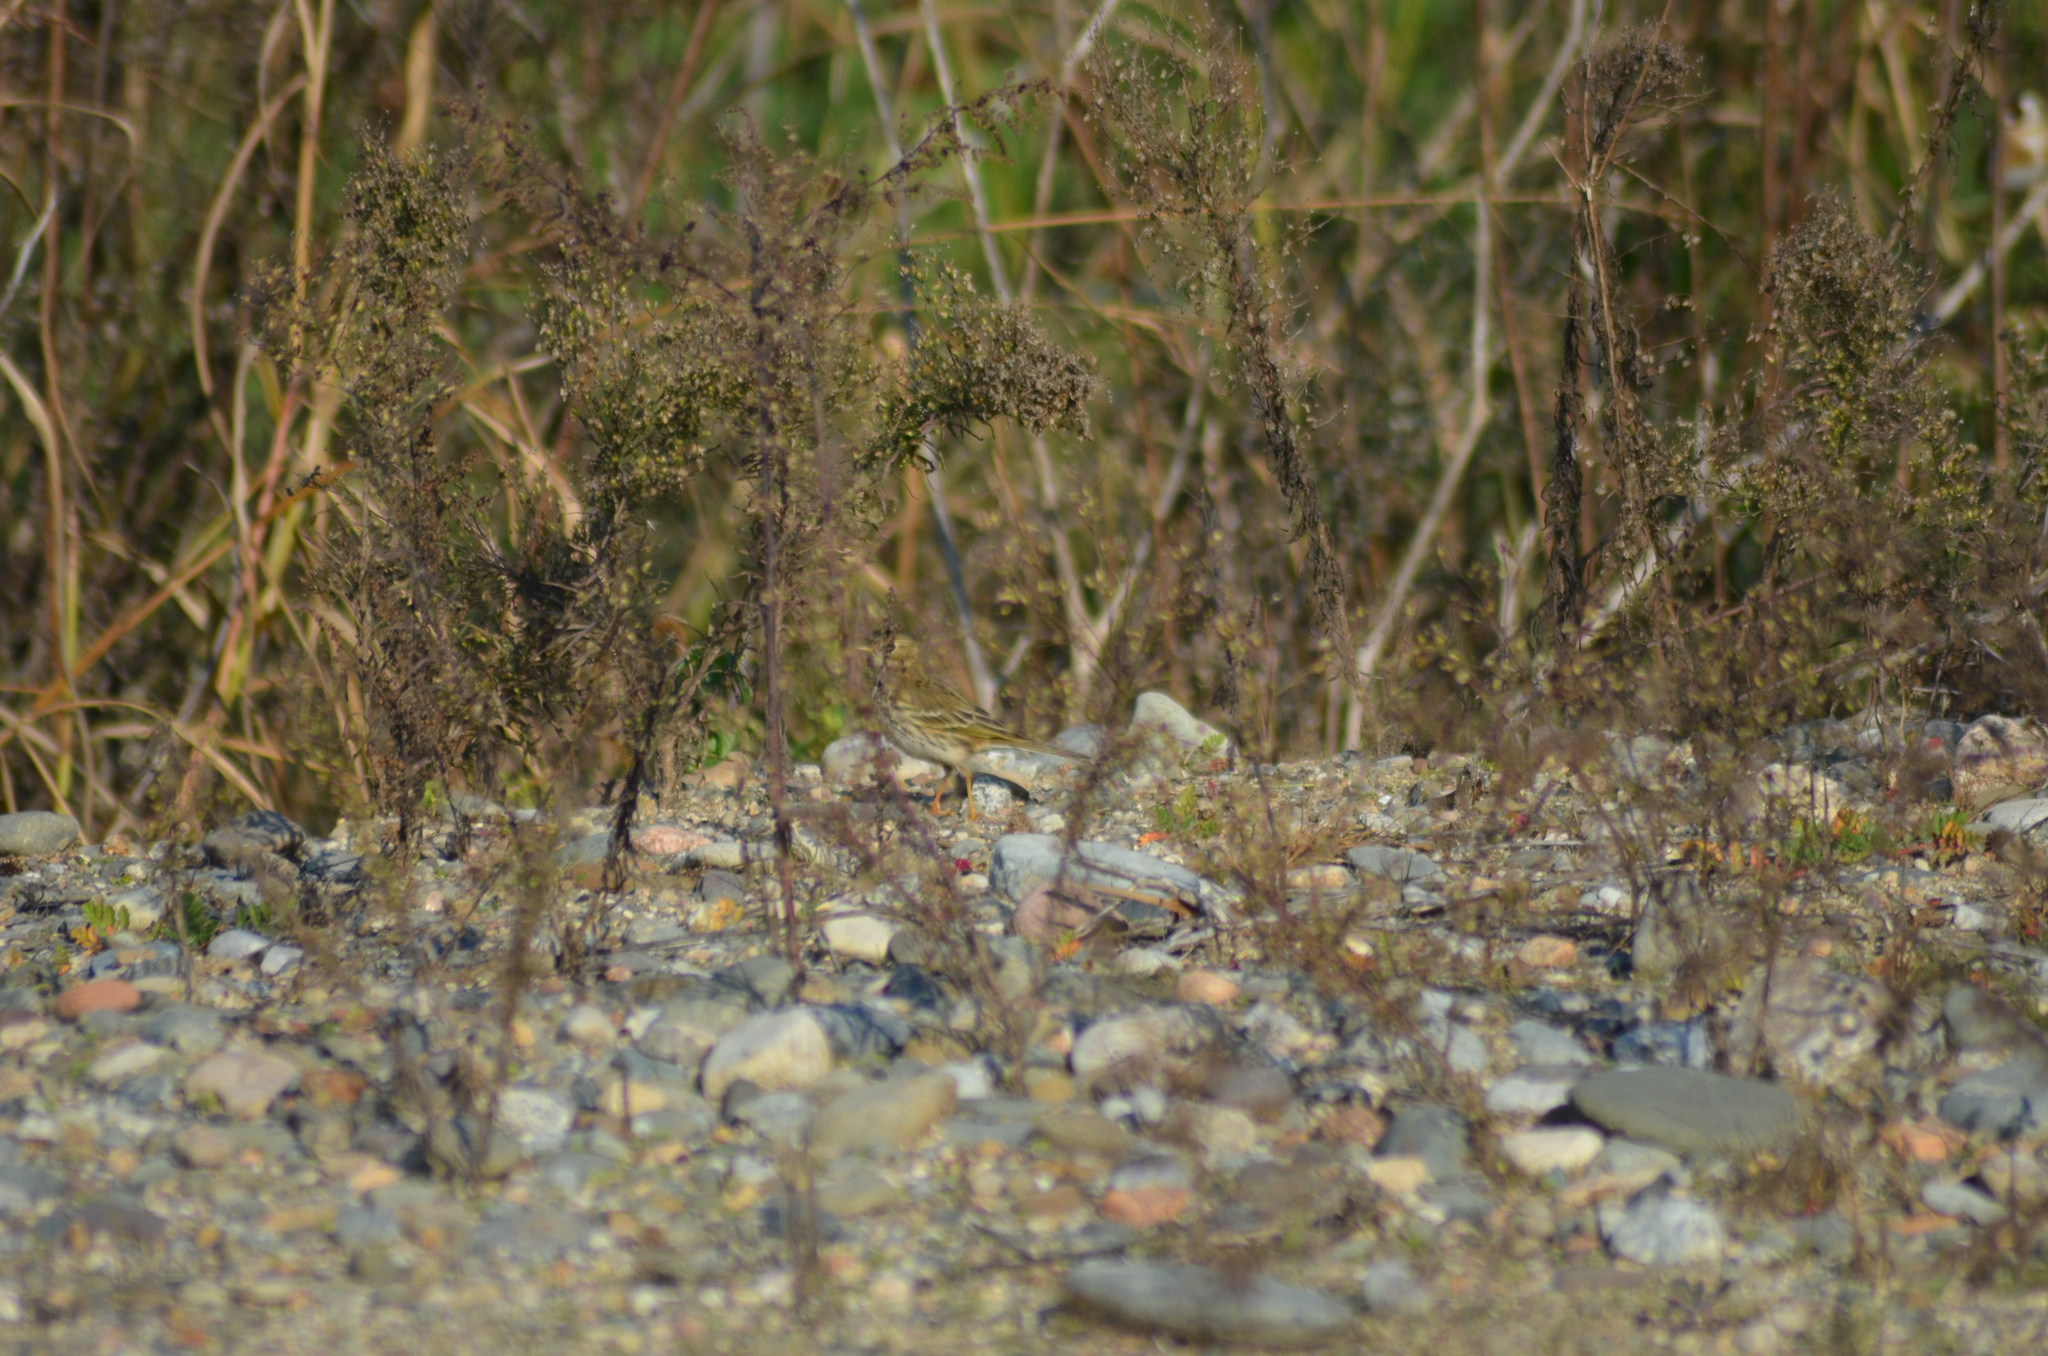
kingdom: Animalia
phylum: Chordata
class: Aves
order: Passeriformes
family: Motacillidae
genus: Anthus
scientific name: Anthus pratensis
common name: Meadow pipit
